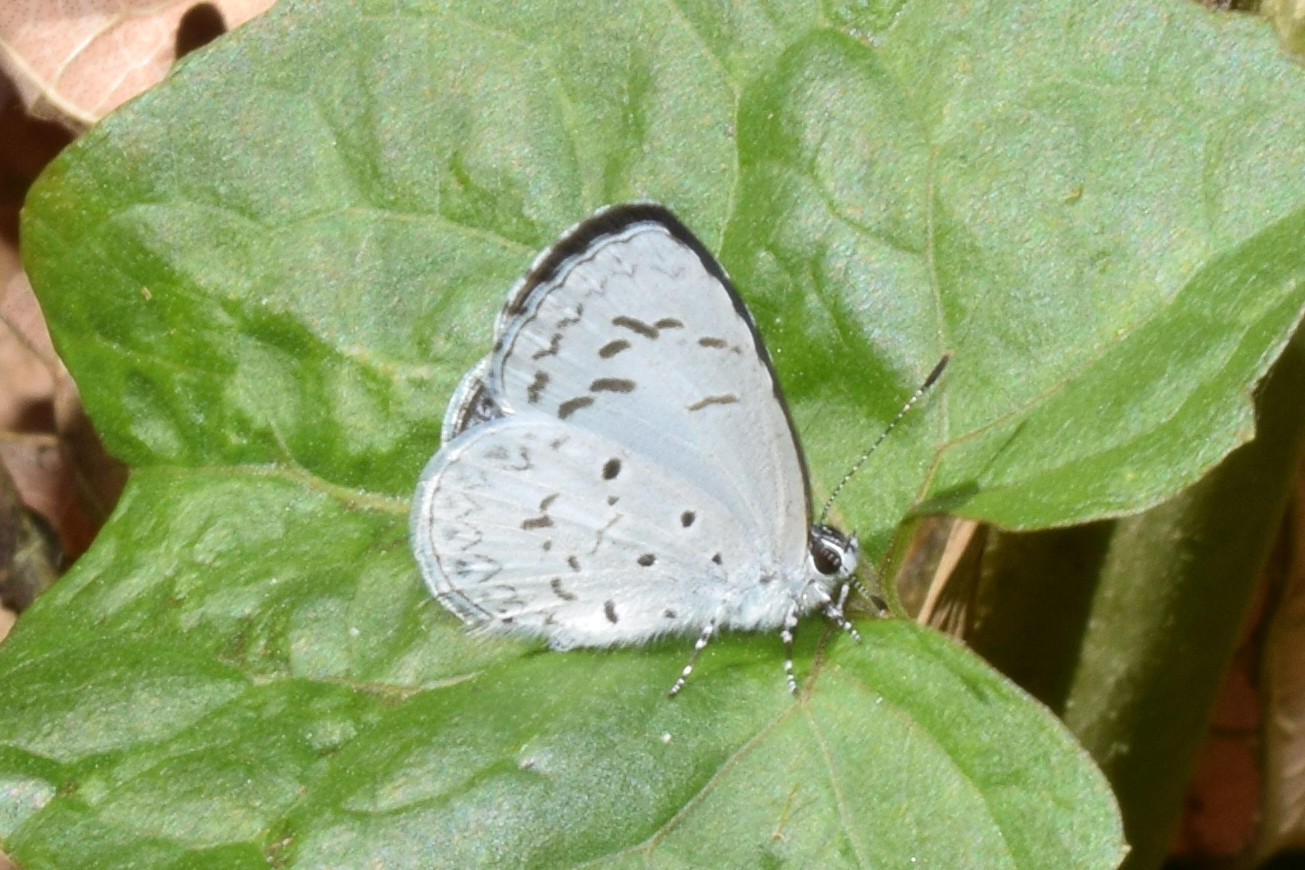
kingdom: Animalia
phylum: Arthropoda
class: Insecta
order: Lepidoptera
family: Lycaenidae
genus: Acytolepis
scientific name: Acytolepis puspa
